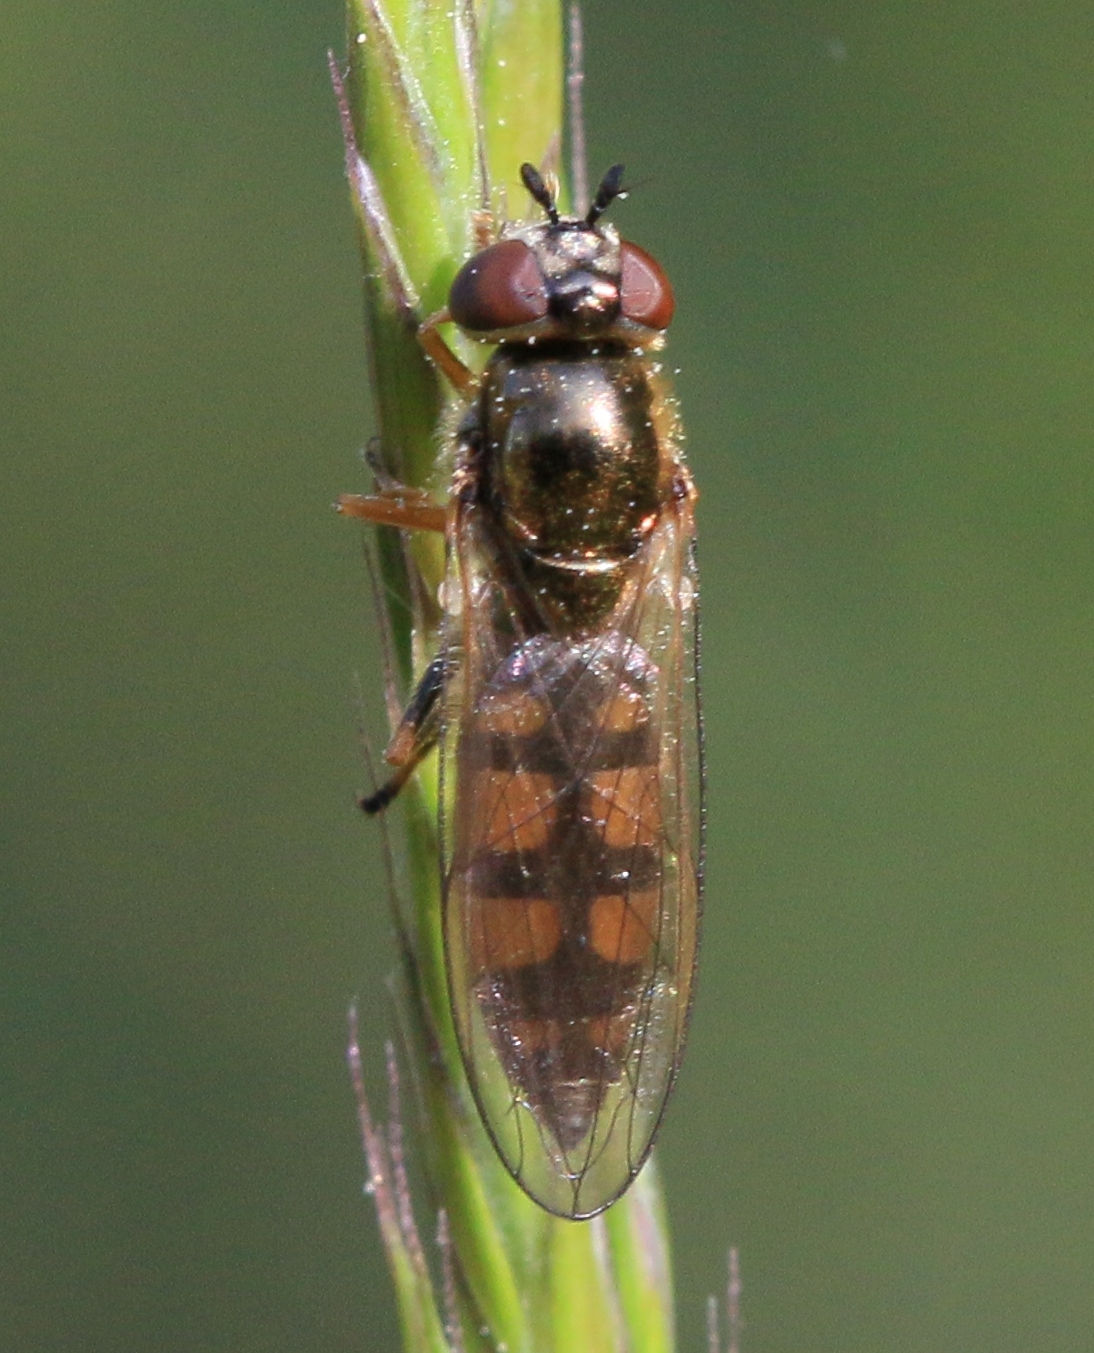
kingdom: Animalia
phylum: Arthropoda
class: Insecta
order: Diptera
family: Syrphidae
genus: Platycheirus
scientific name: Platycheirus clypeatus
